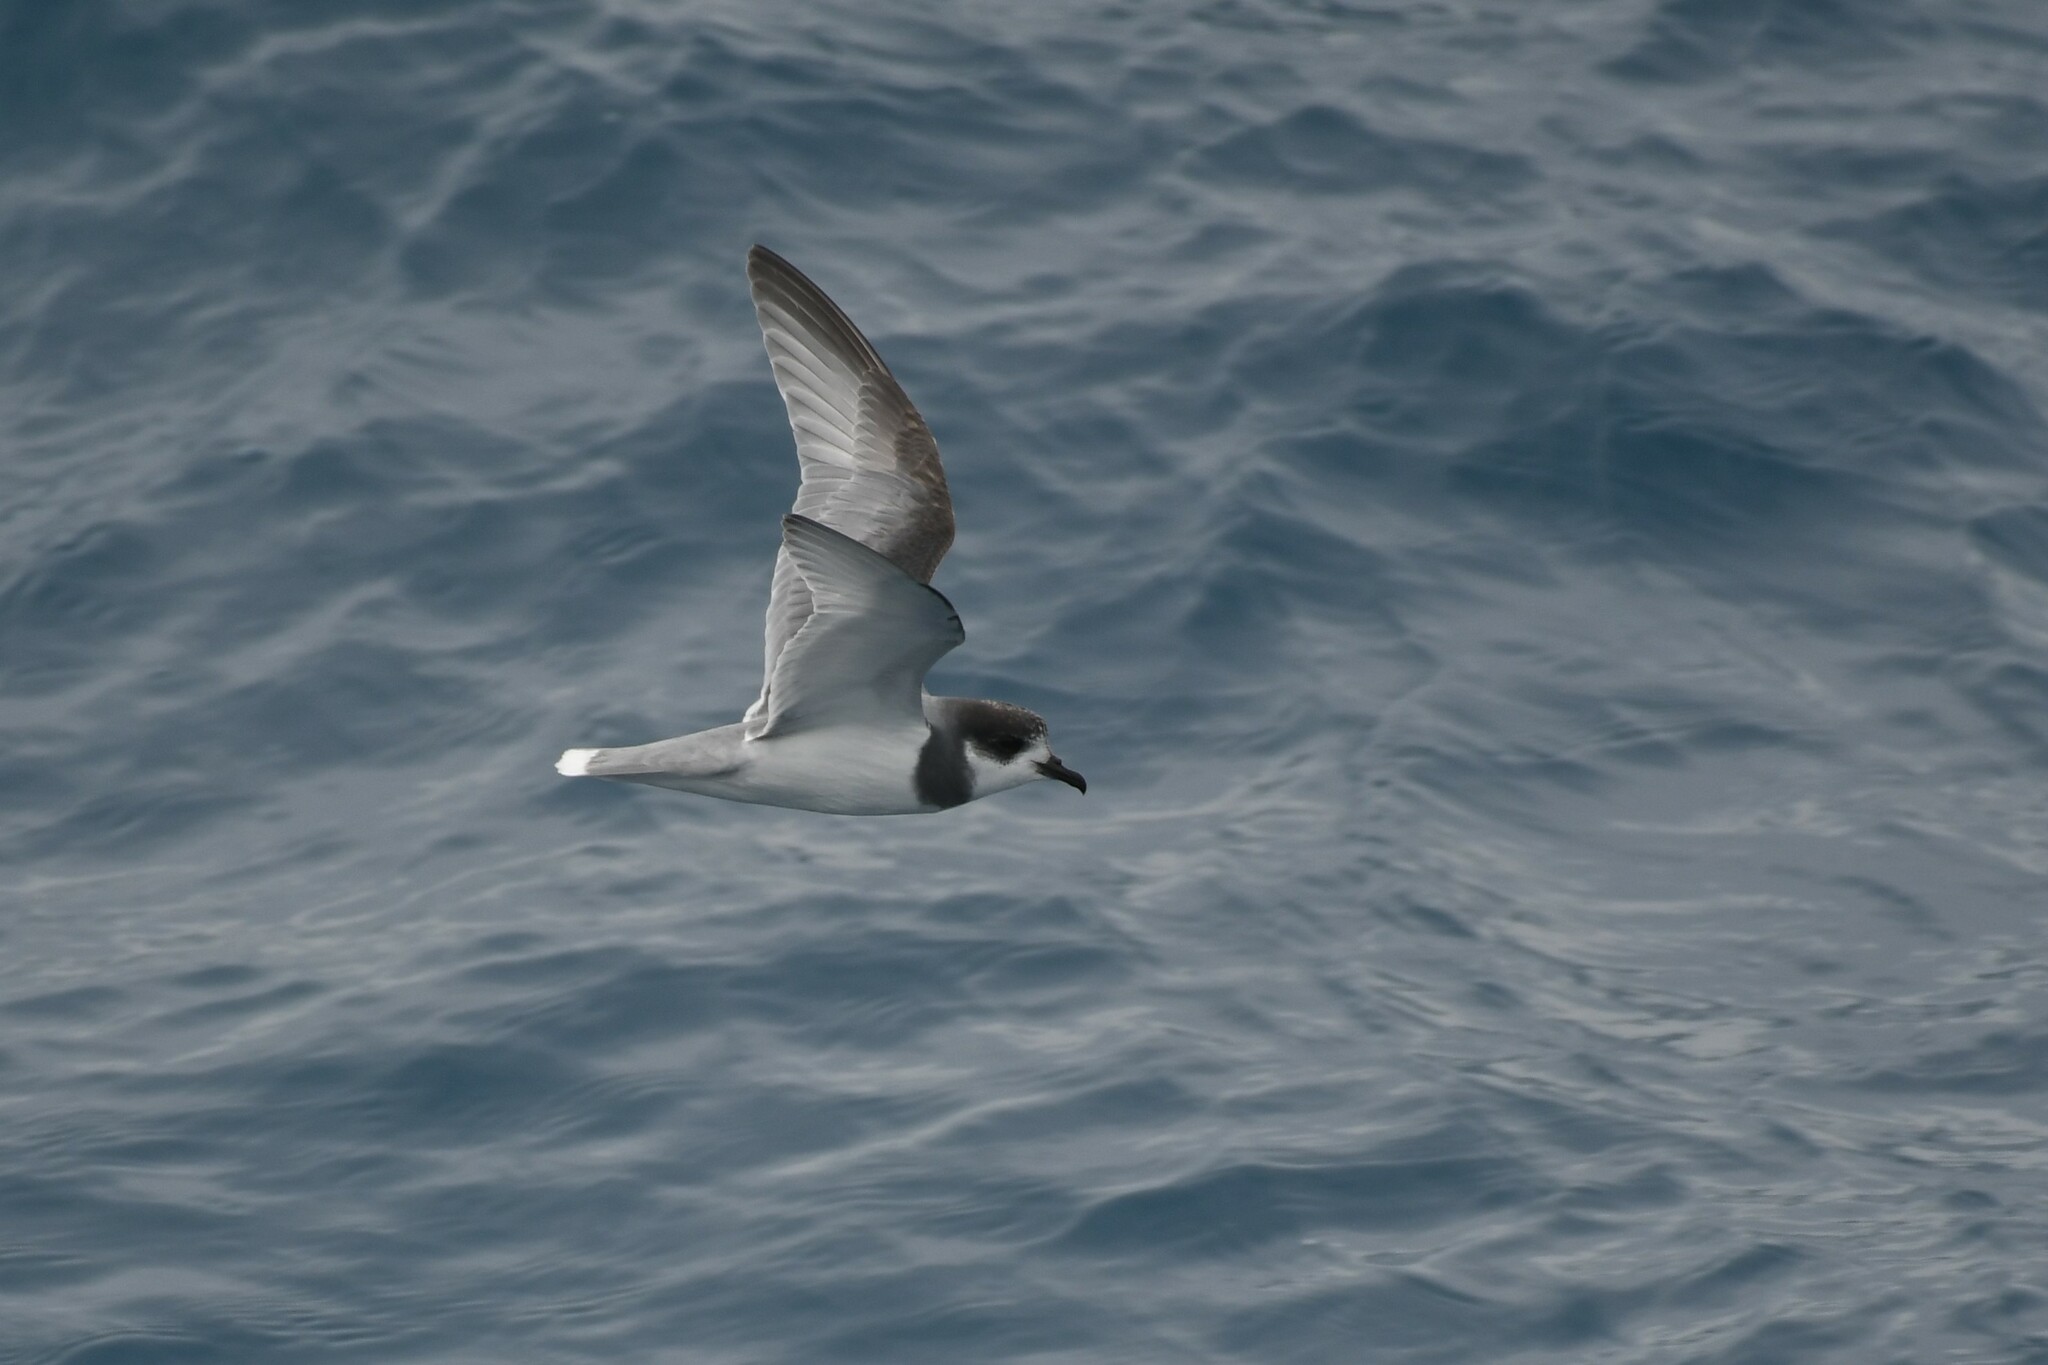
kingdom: Animalia
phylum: Chordata
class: Aves
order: Procellariiformes
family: Procellariidae
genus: Halobaena
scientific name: Halobaena caerulea
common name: Blue petrel
